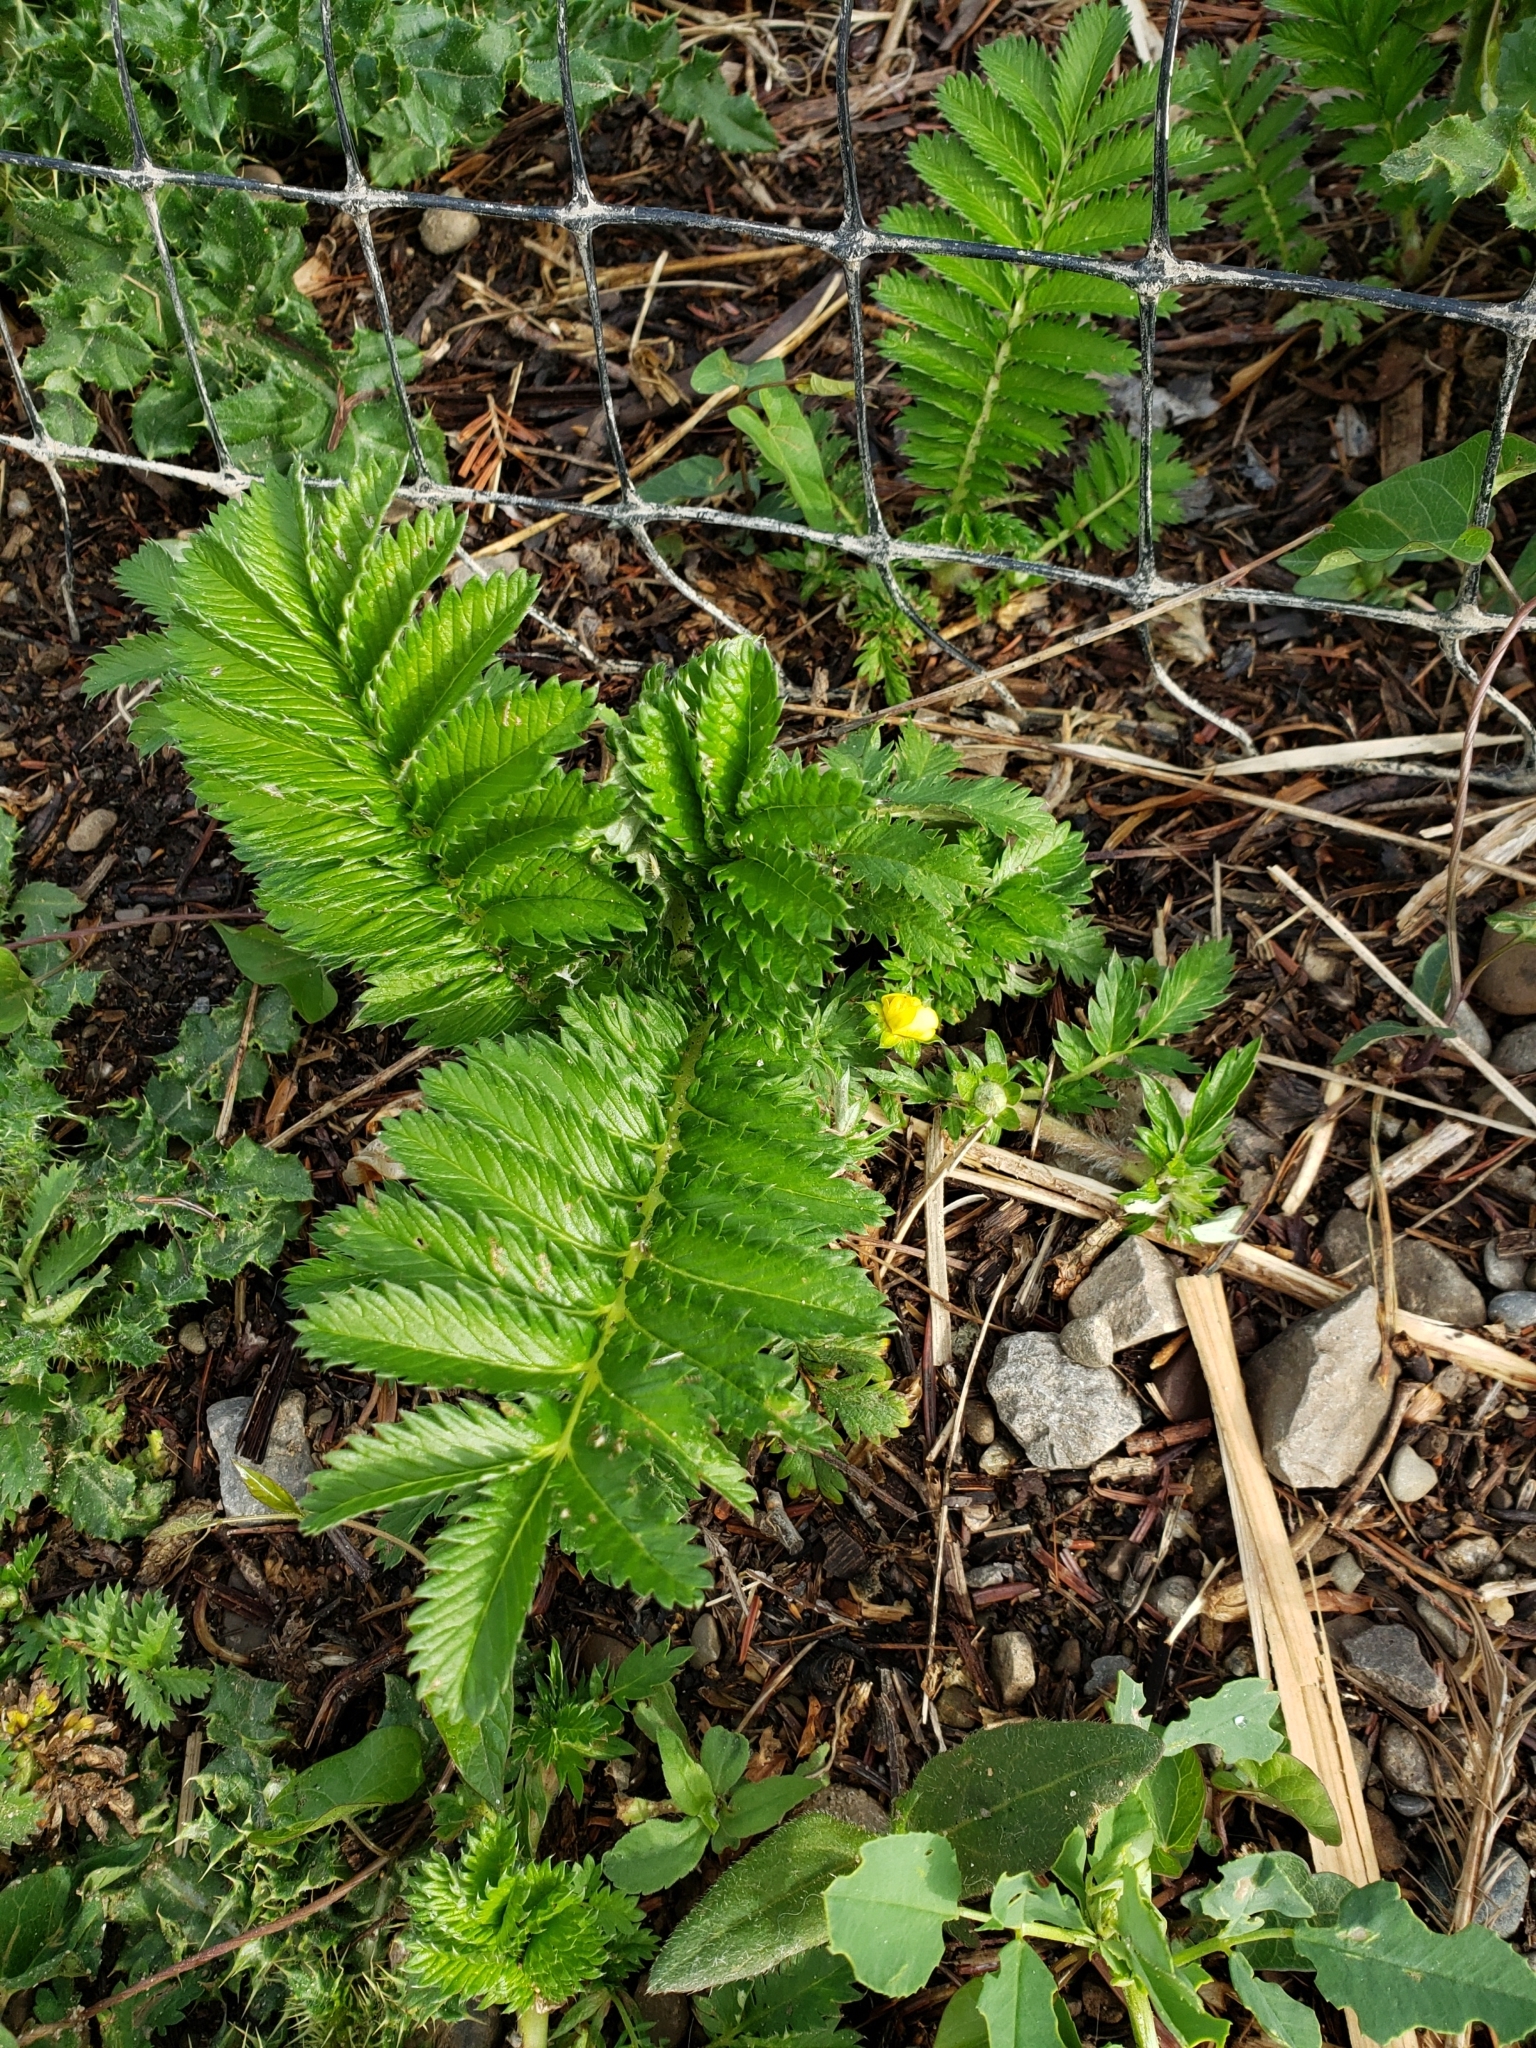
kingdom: Plantae
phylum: Tracheophyta
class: Magnoliopsida
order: Rosales
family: Rosaceae
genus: Argentina
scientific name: Argentina anserina
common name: Common silverweed
